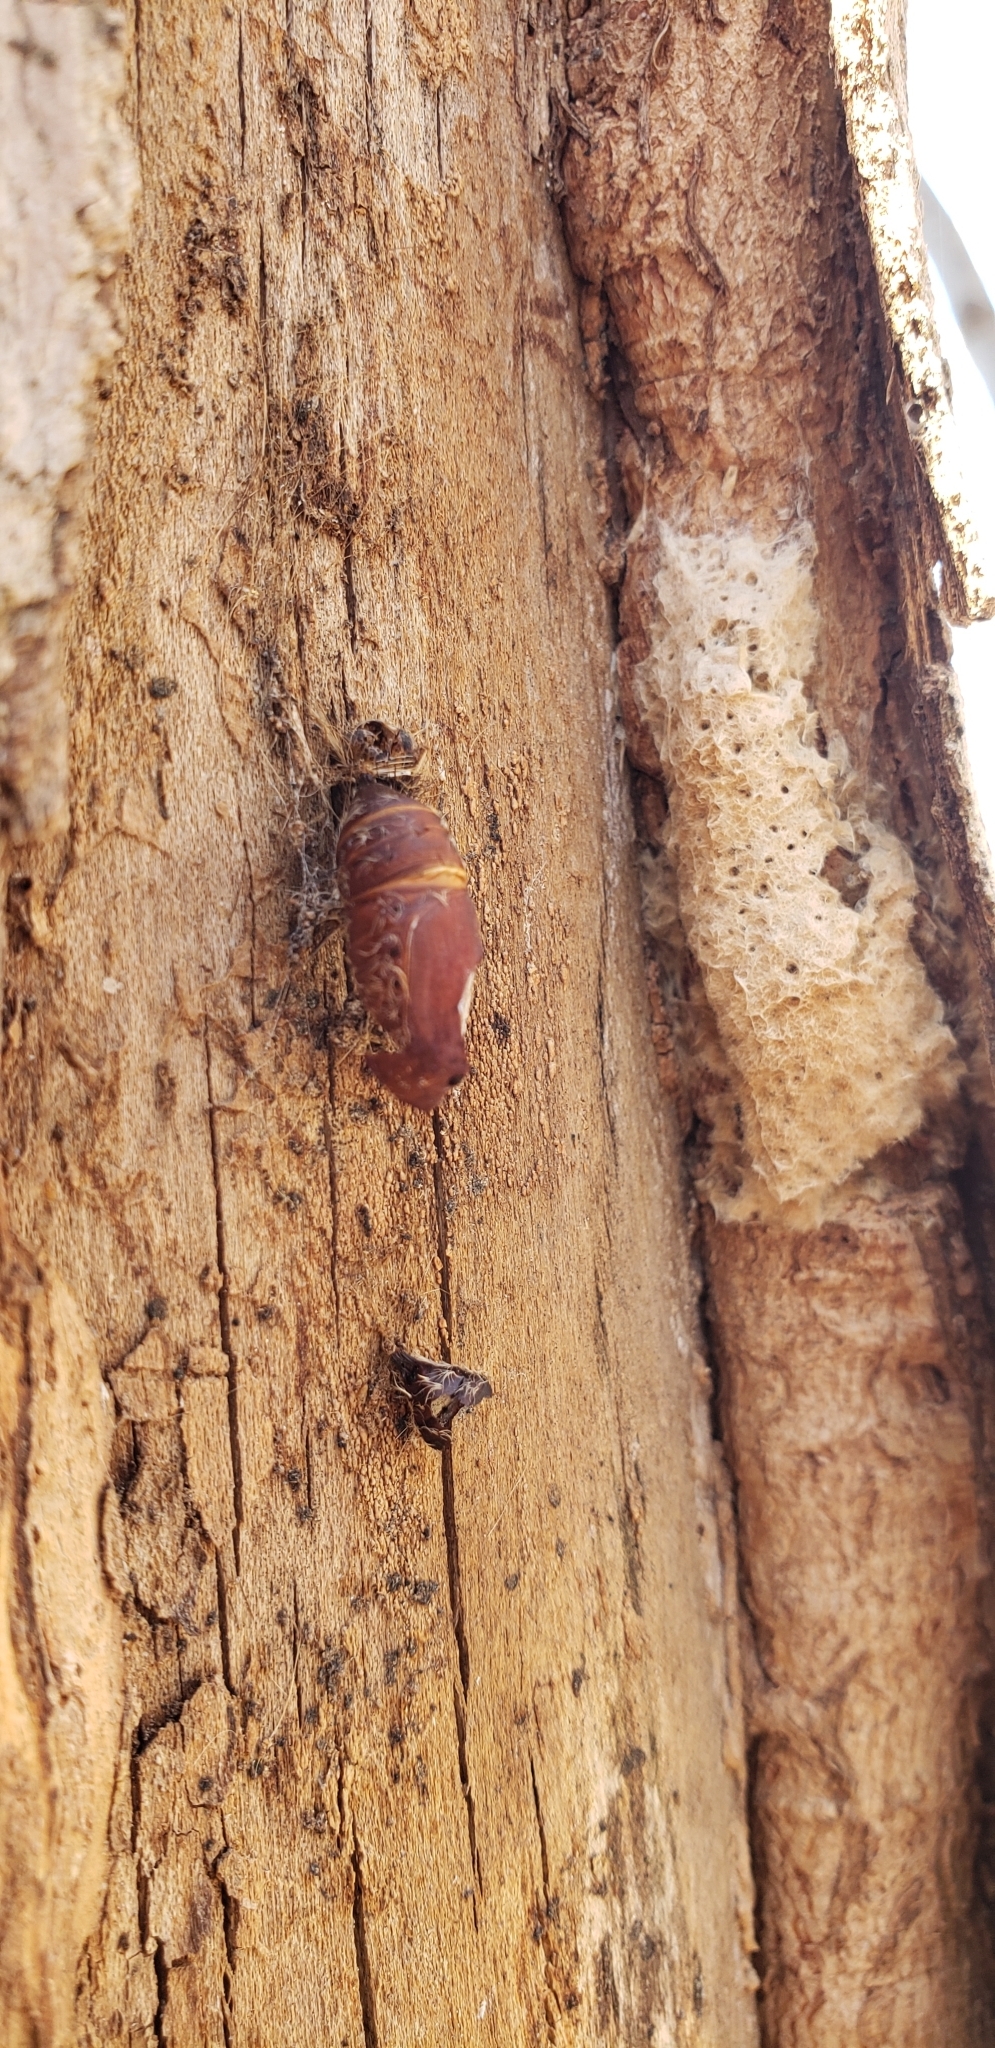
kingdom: Animalia
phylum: Arthropoda
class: Insecta
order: Lepidoptera
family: Erebidae
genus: Lymantria
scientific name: Lymantria dispar
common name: Gypsy moth
